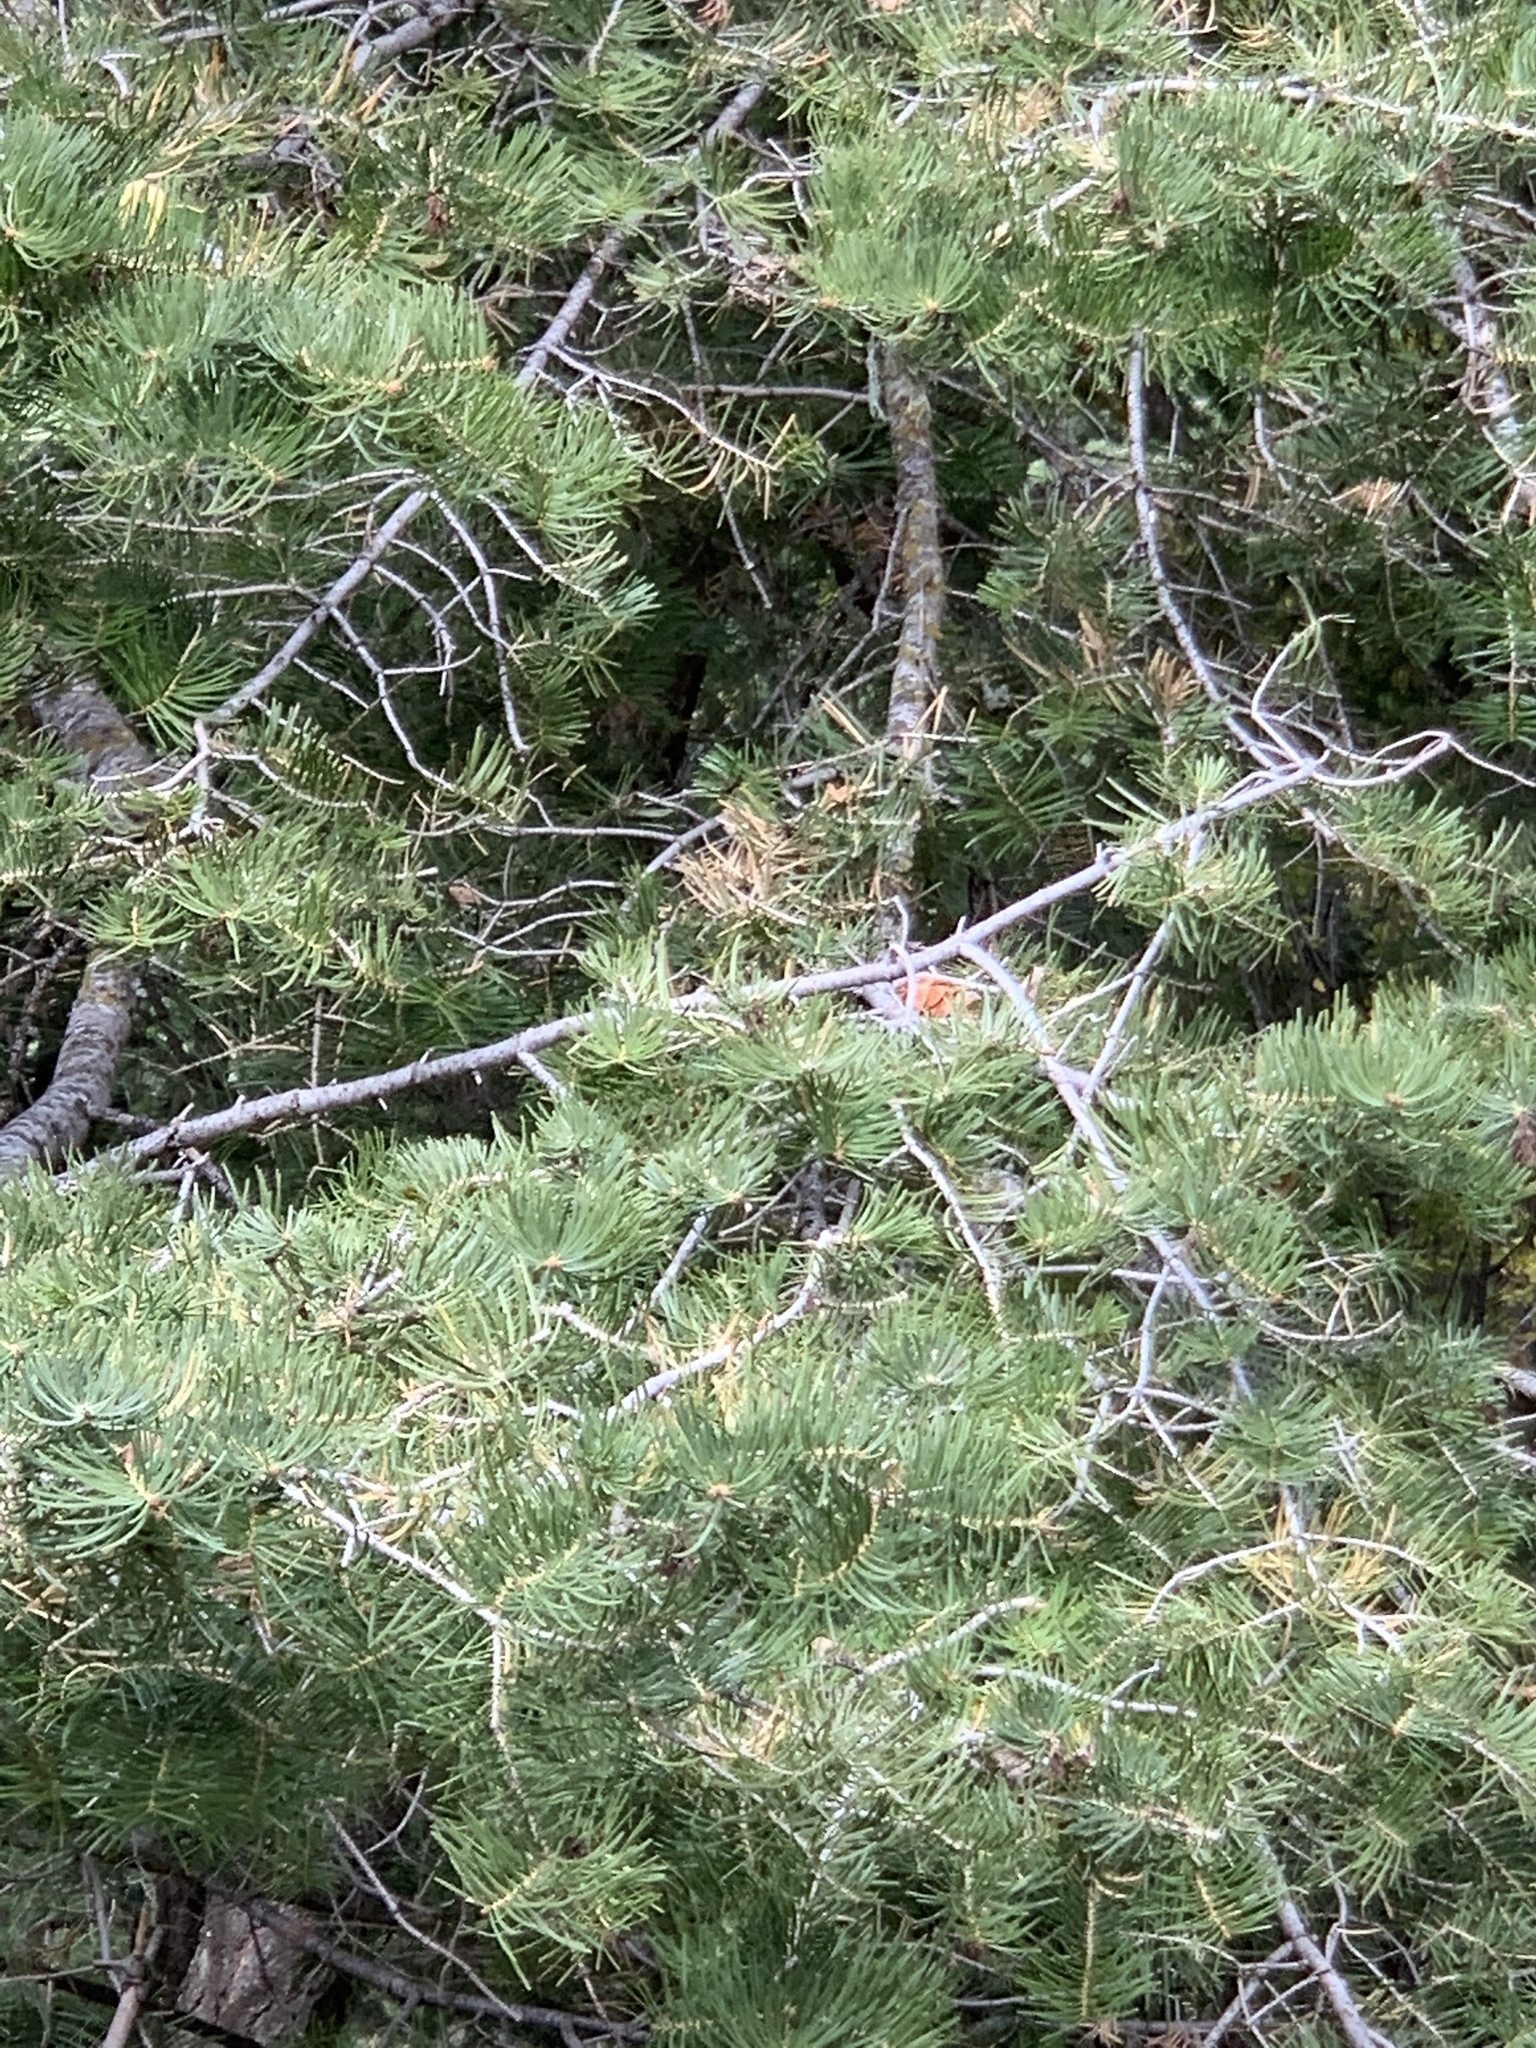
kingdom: Plantae
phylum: Tracheophyta
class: Pinopsida
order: Pinales
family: Pinaceae
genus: Abies
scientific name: Abies concolor
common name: Colorado fir
